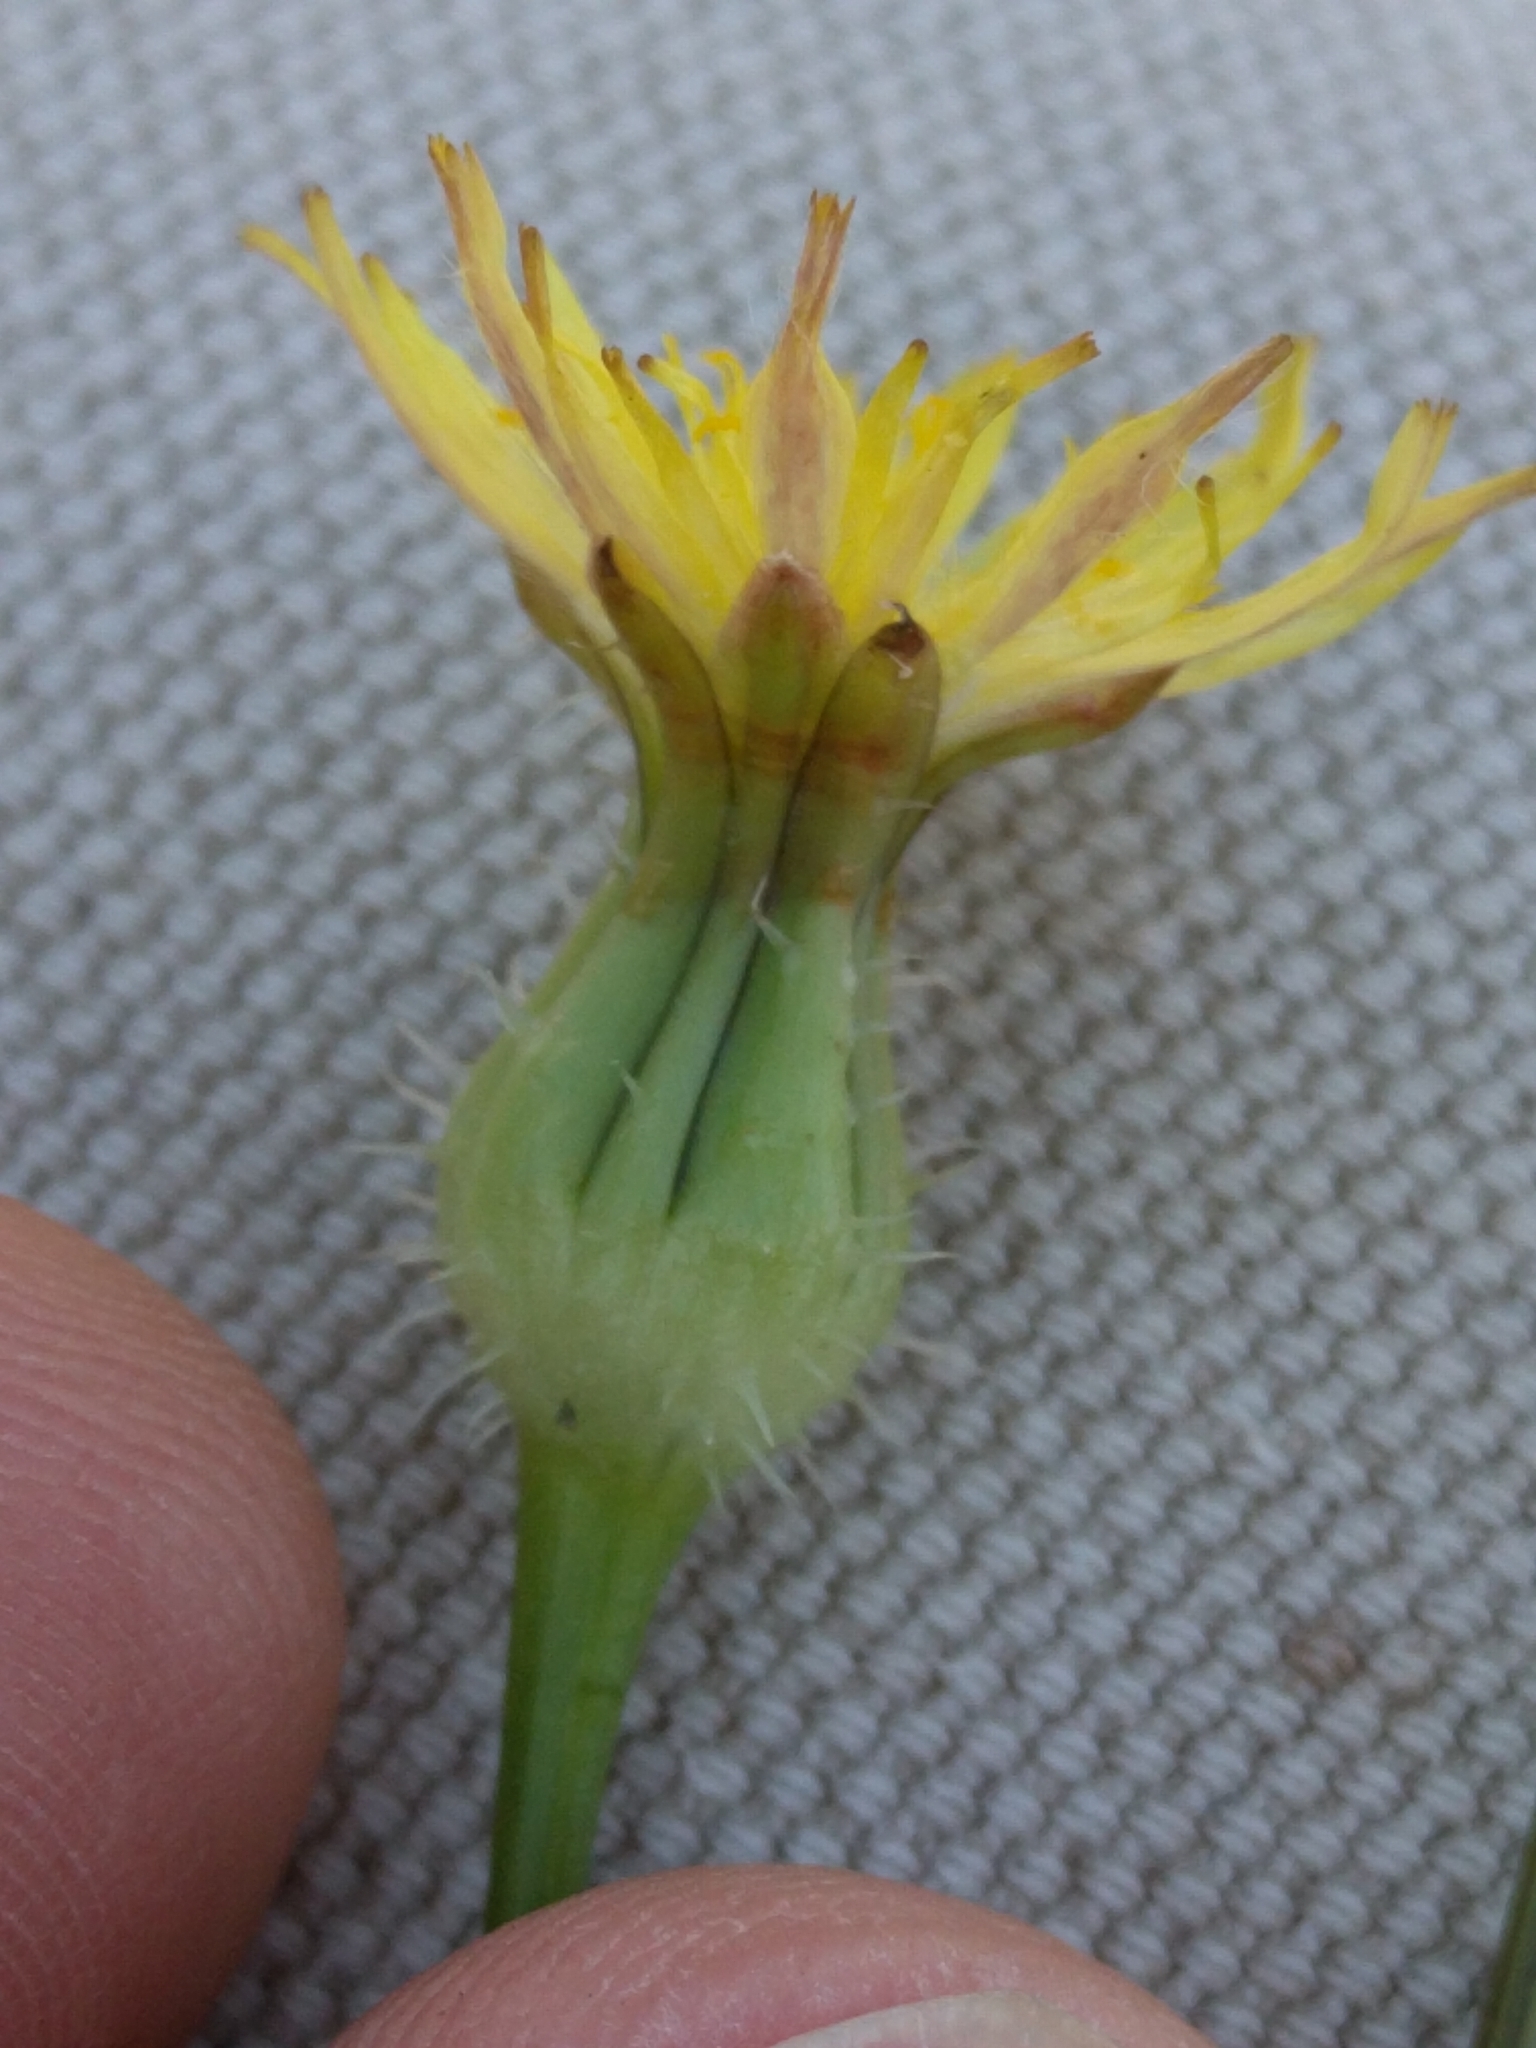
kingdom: Plantae
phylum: Tracheophyta
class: Magnoliopsida
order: Asterales
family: Asteraceae
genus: Urospermum
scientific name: Urospermum picroides
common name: False hawkbit
